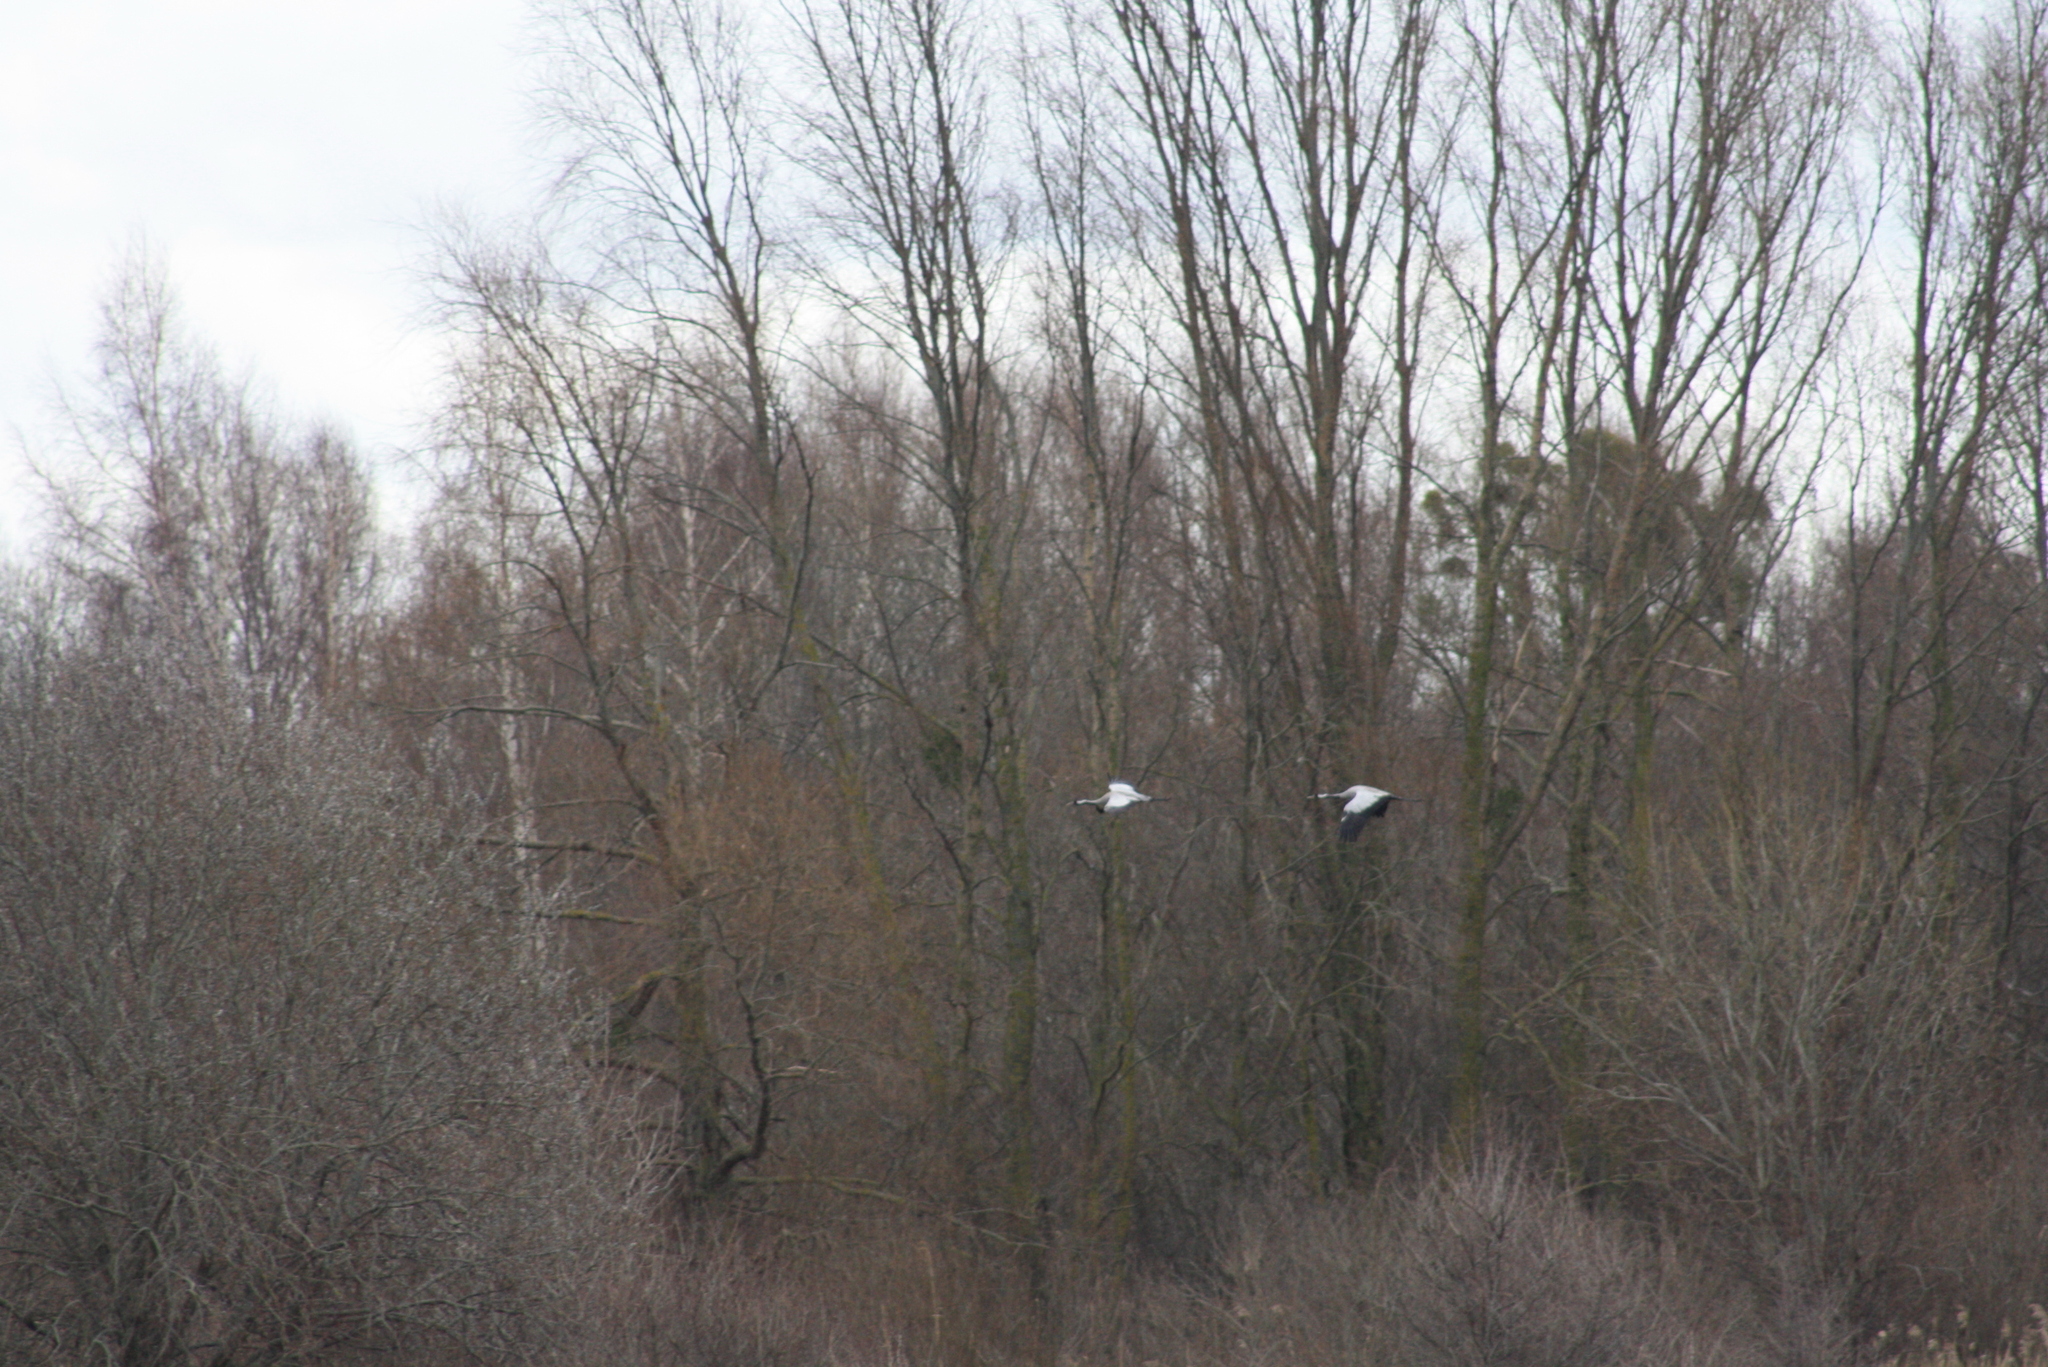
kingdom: Animalia
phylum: Chordata
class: Aves
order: Gruiformes
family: Gruidae
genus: Grus
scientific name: Grus grus
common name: Common crane
